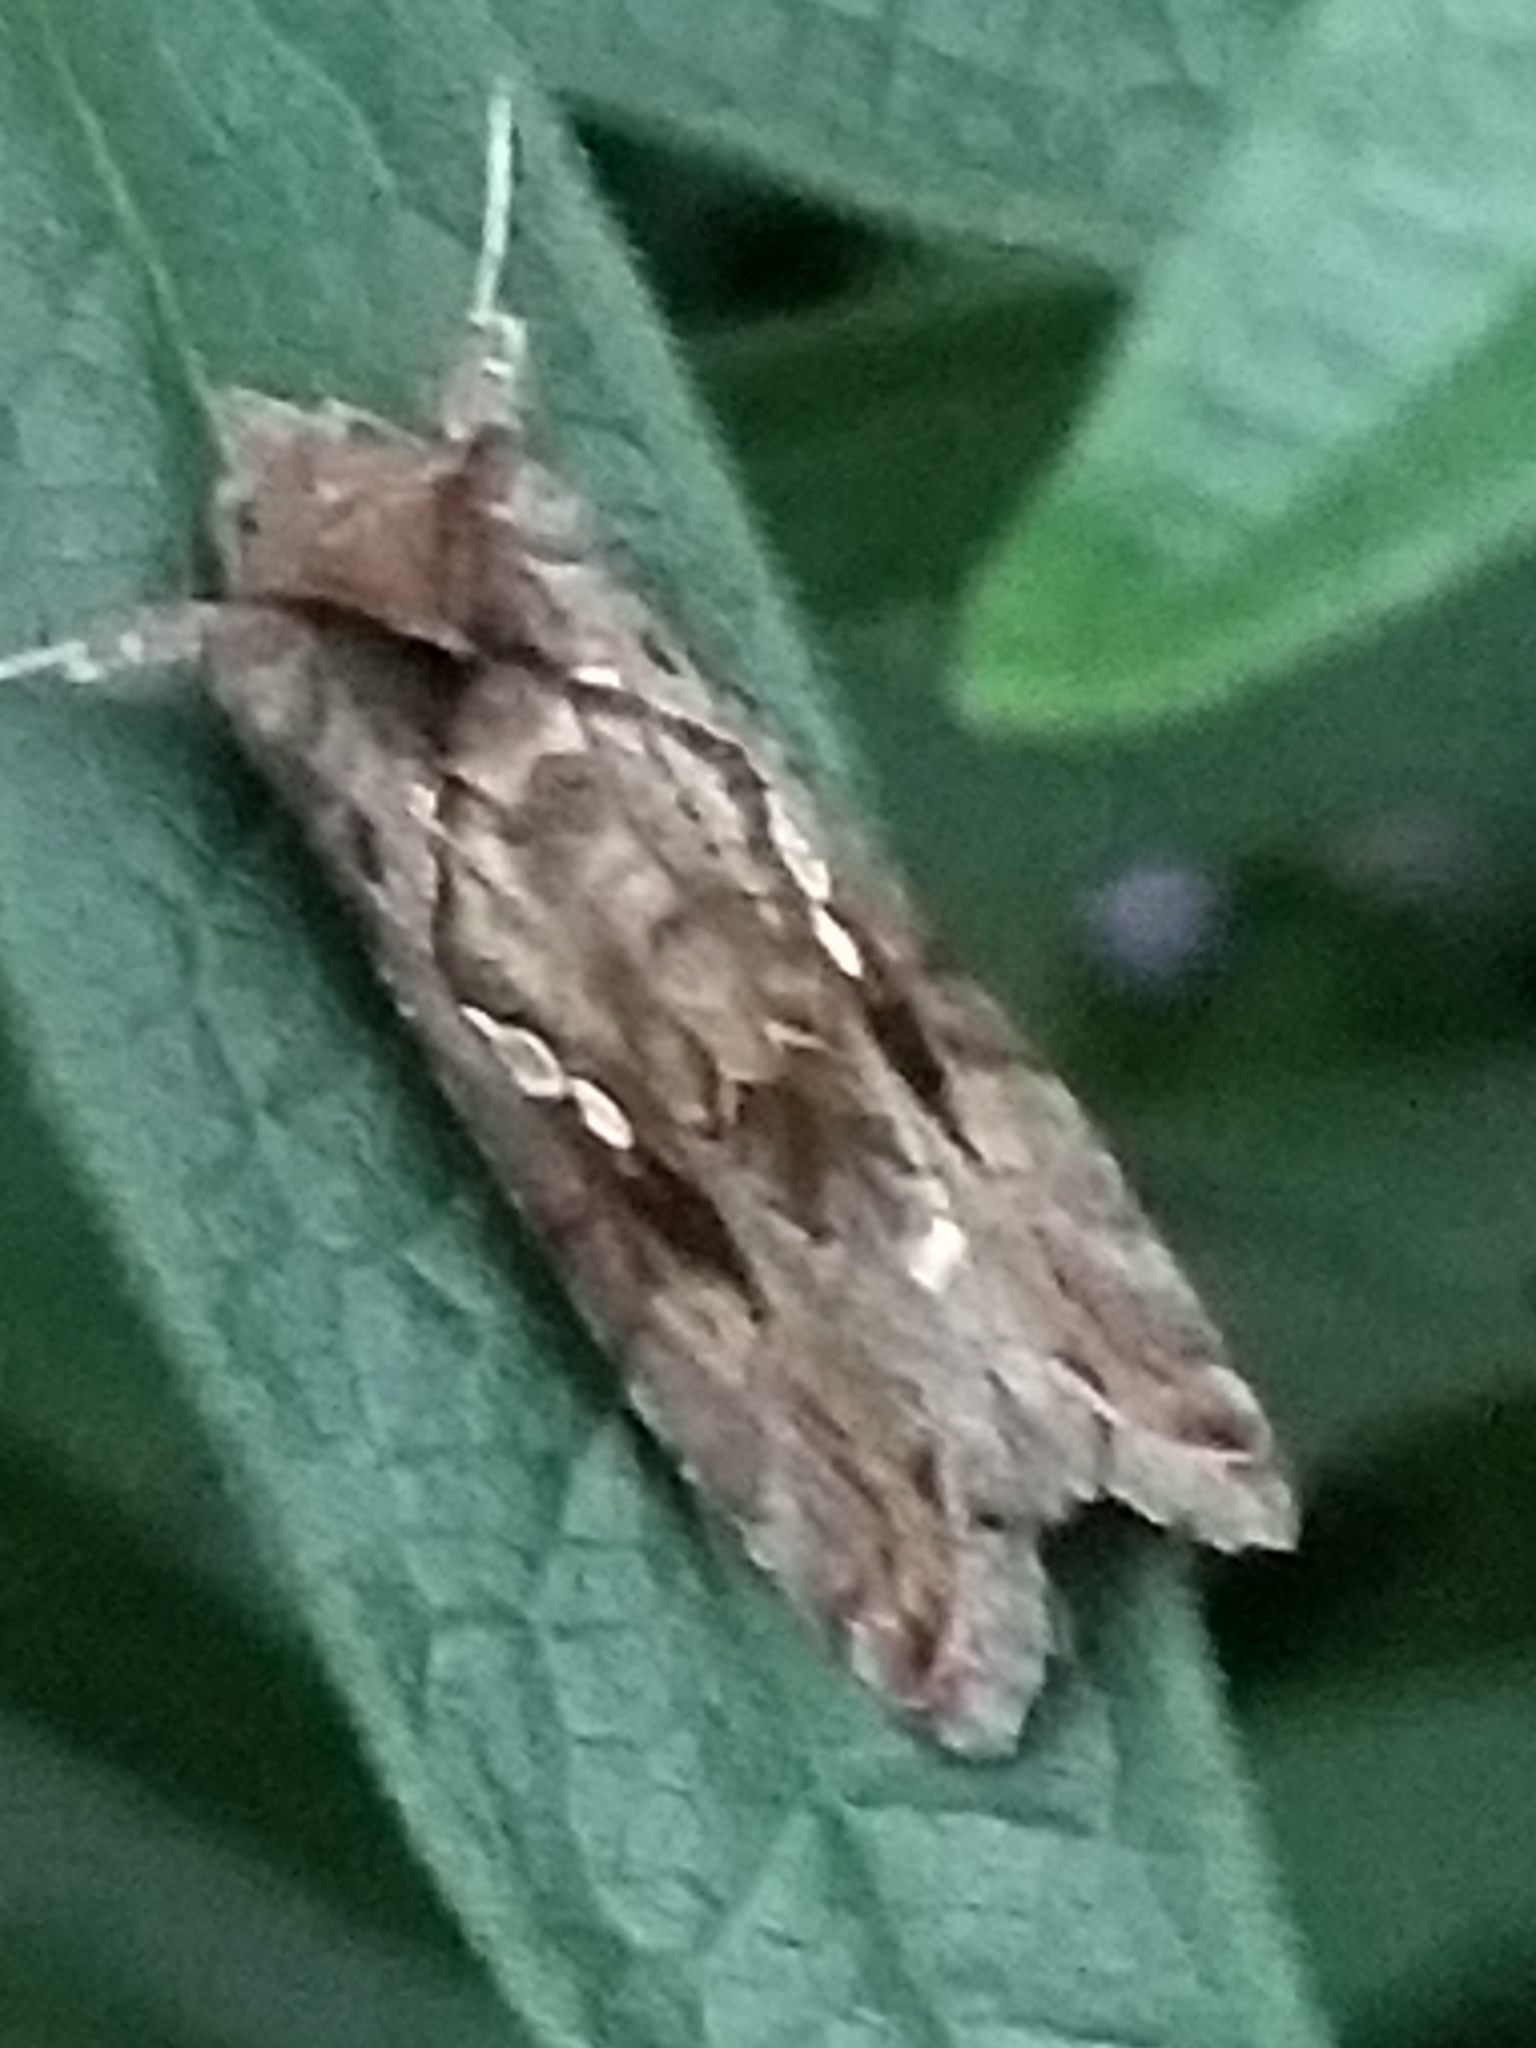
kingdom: Animalia
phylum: Arthropoda
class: Insecta
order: Lepidoptera
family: Noctuidae
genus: Chrysodeixis
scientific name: Chrysodeixis includens
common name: Cutworm moth
